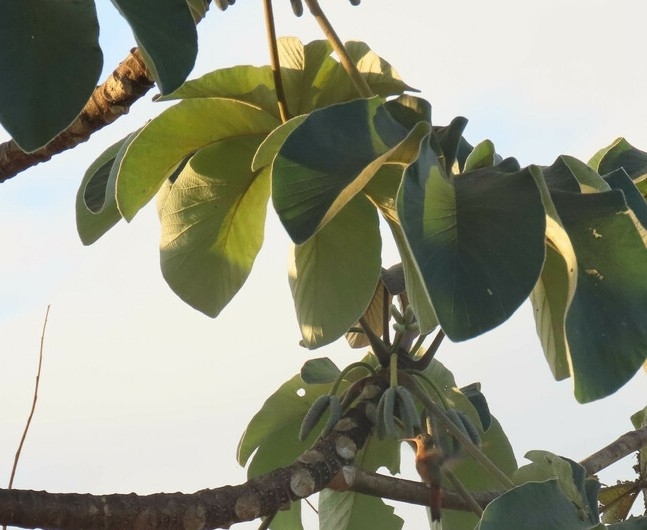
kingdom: Plantae
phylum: Tracheophyta
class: Magnoliopsida
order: Rosales
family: Urticaceae
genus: Cecropia
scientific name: Cecropia peltata
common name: Trumpet-tree
